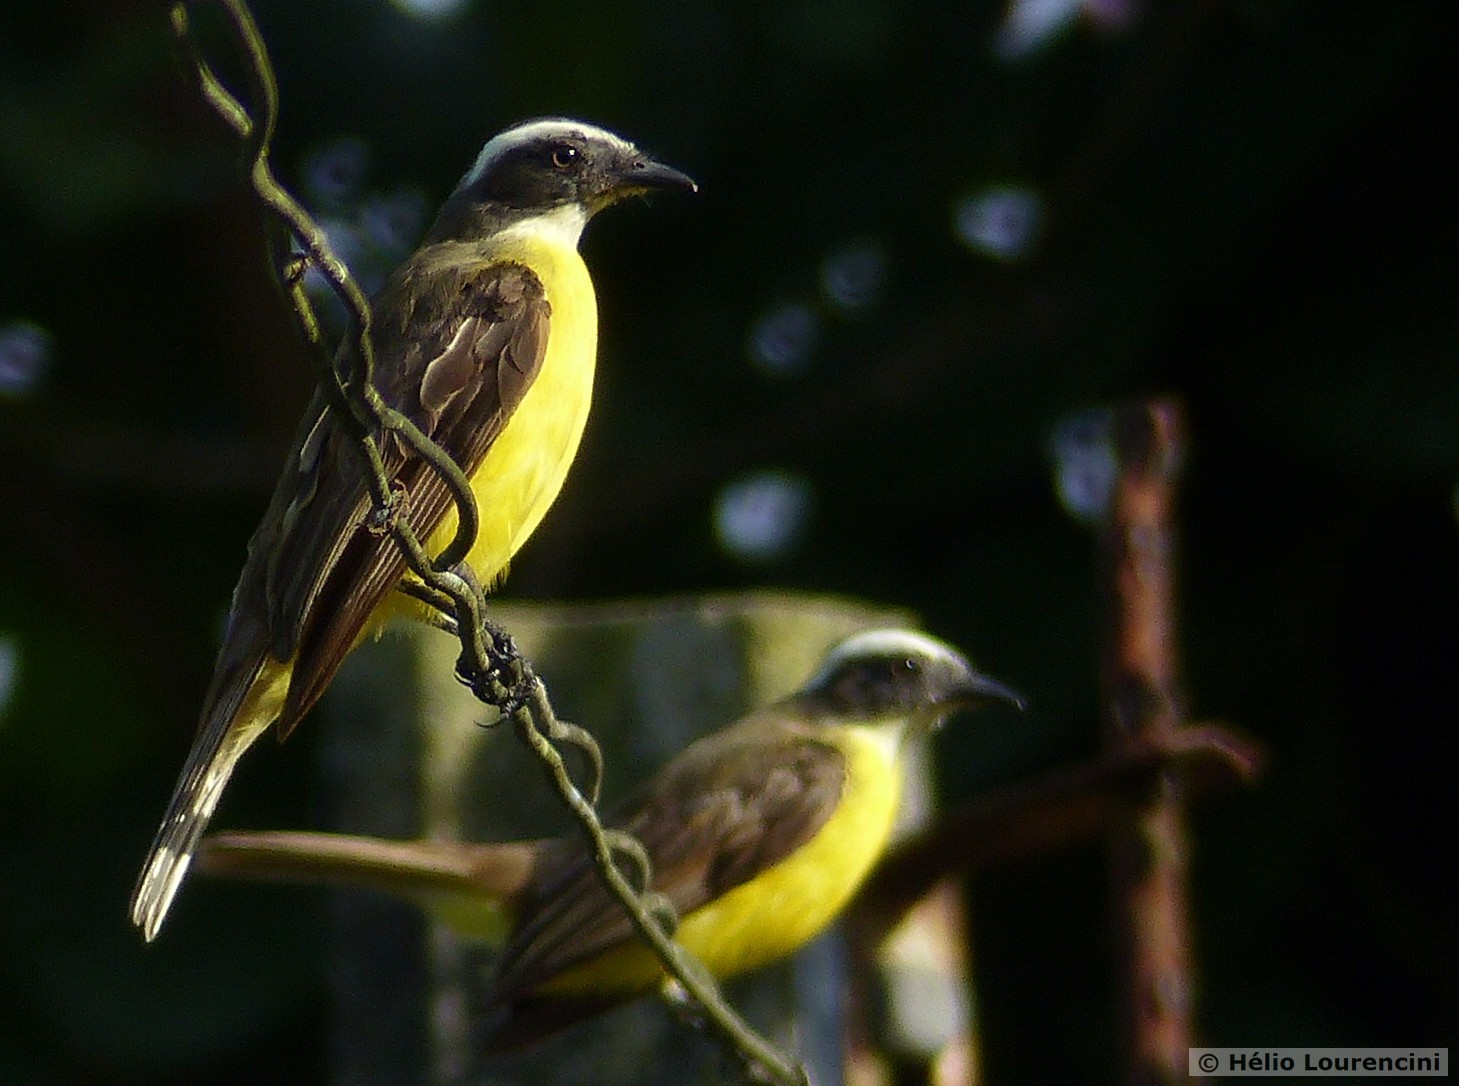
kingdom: Animalia
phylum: Chordata
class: Aves
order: Passeriformes
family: Tyrannidae
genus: Myiozetetes
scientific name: Myiozetetes similis
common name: Social flycatcher
